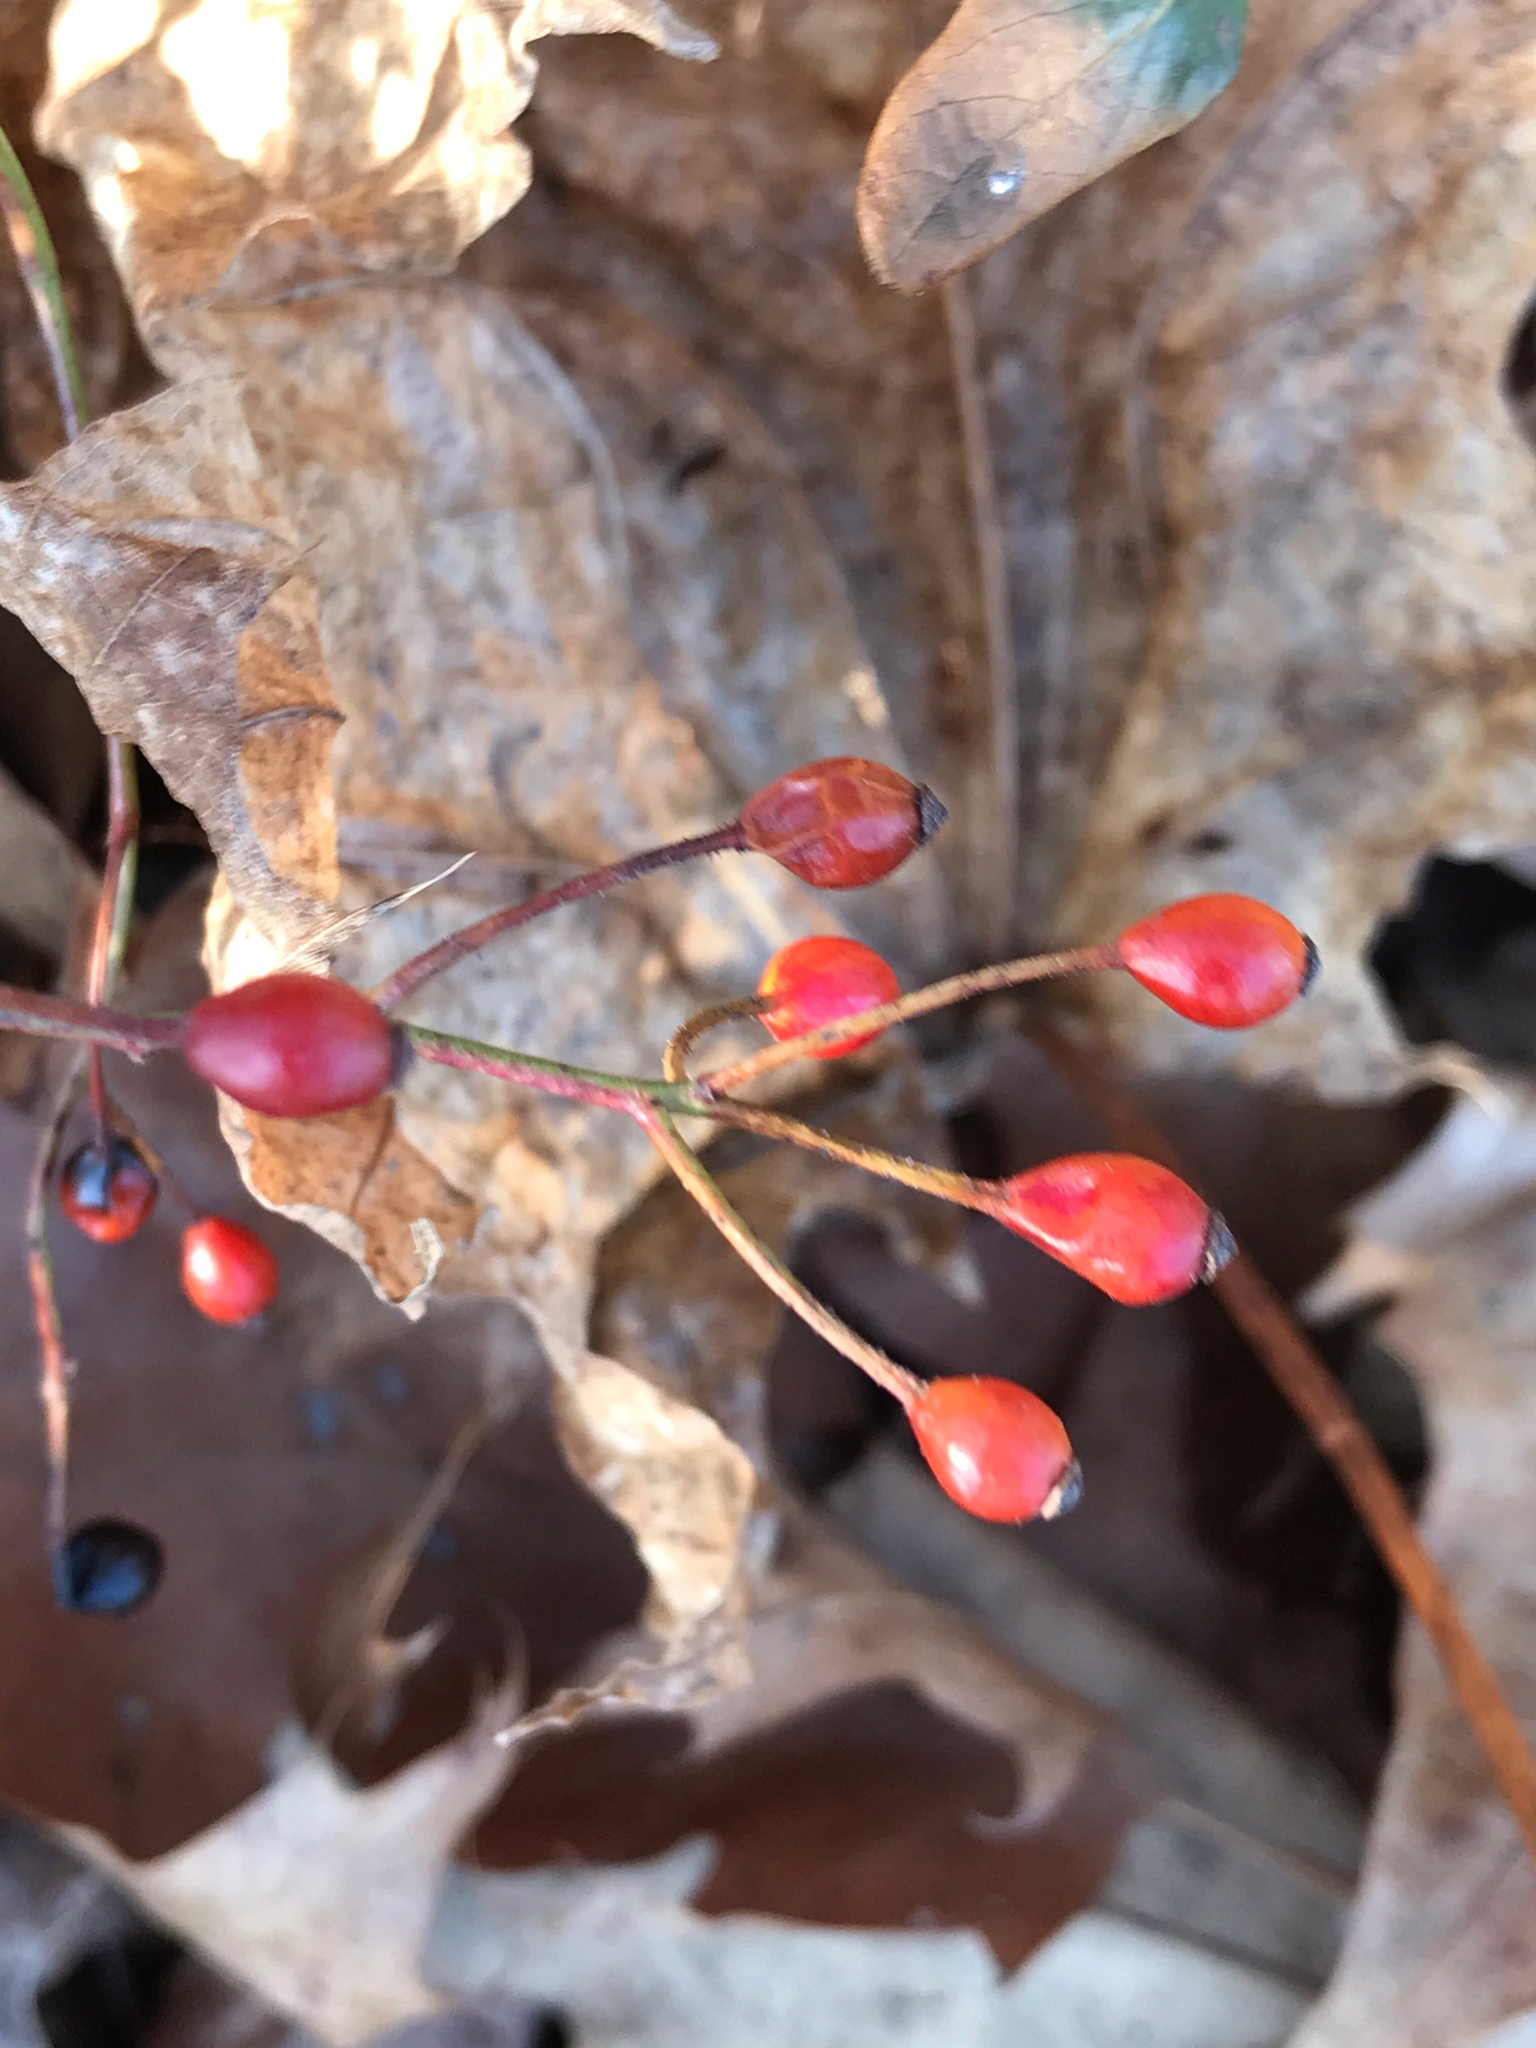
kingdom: Plantae
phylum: Tracheophyta
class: Magnoliopsida
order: Rosales
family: Rosaceae
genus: Rosa
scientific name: Rosa multiflora
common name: Multiflora rose
